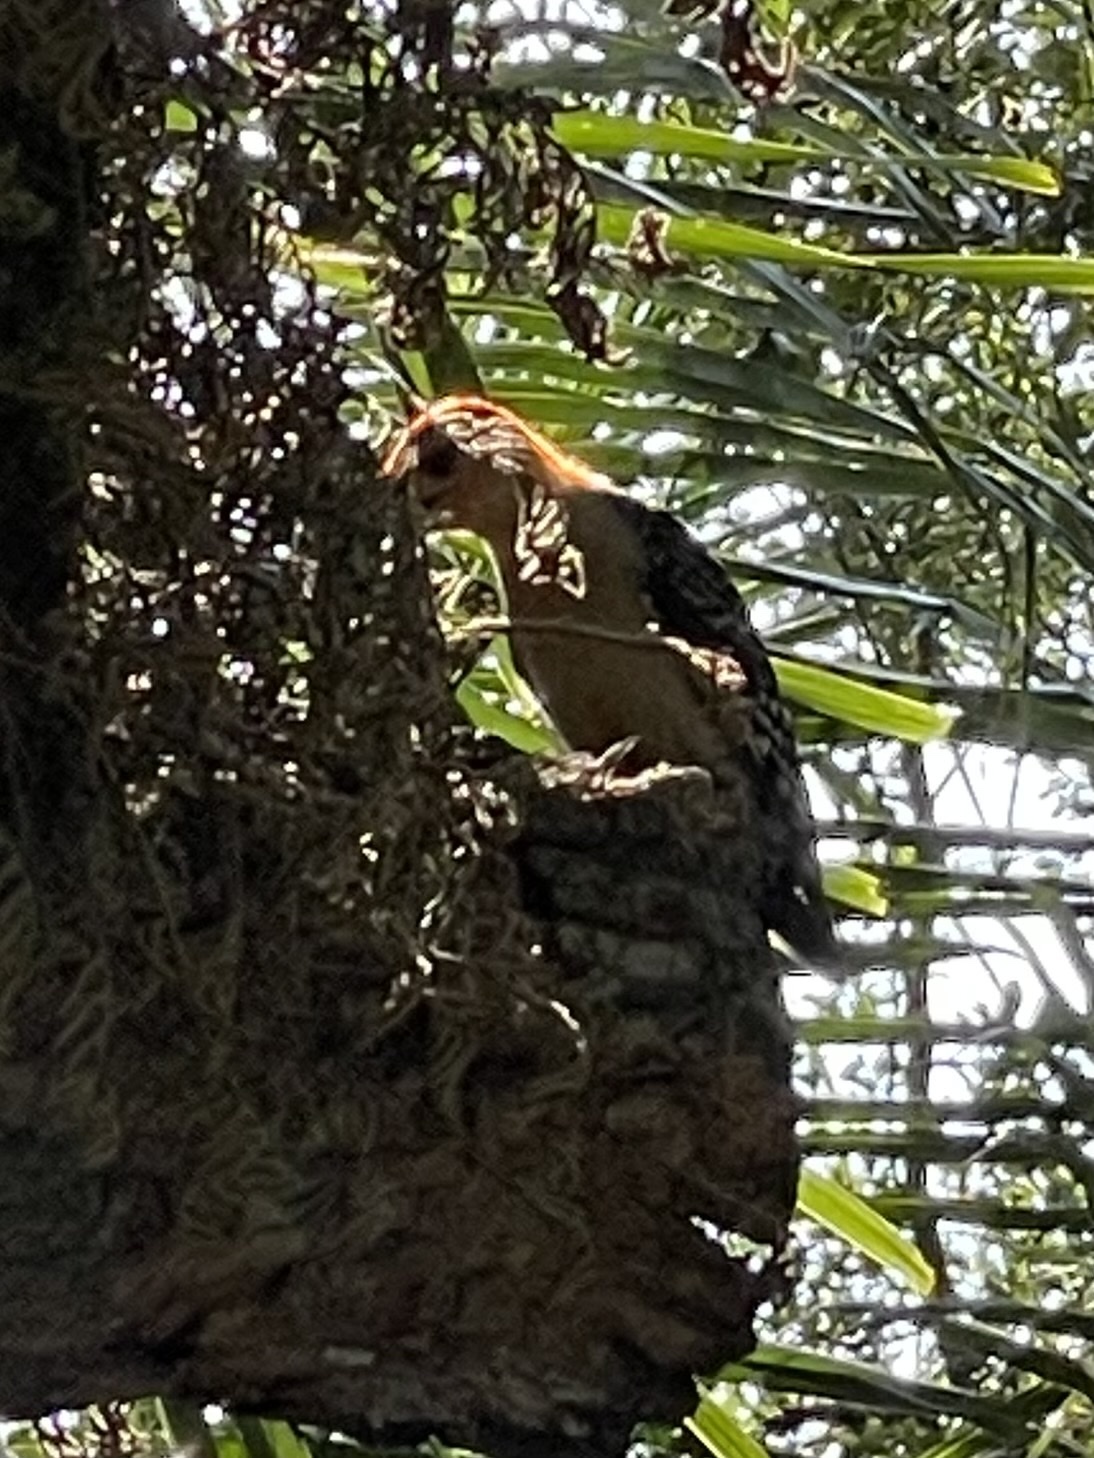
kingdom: Animalia
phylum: Chordata
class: Aves
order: Piciformes
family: Picidae
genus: Melanerpes
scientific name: Melanerpes carolinus
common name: Red-bellied woodpecker
